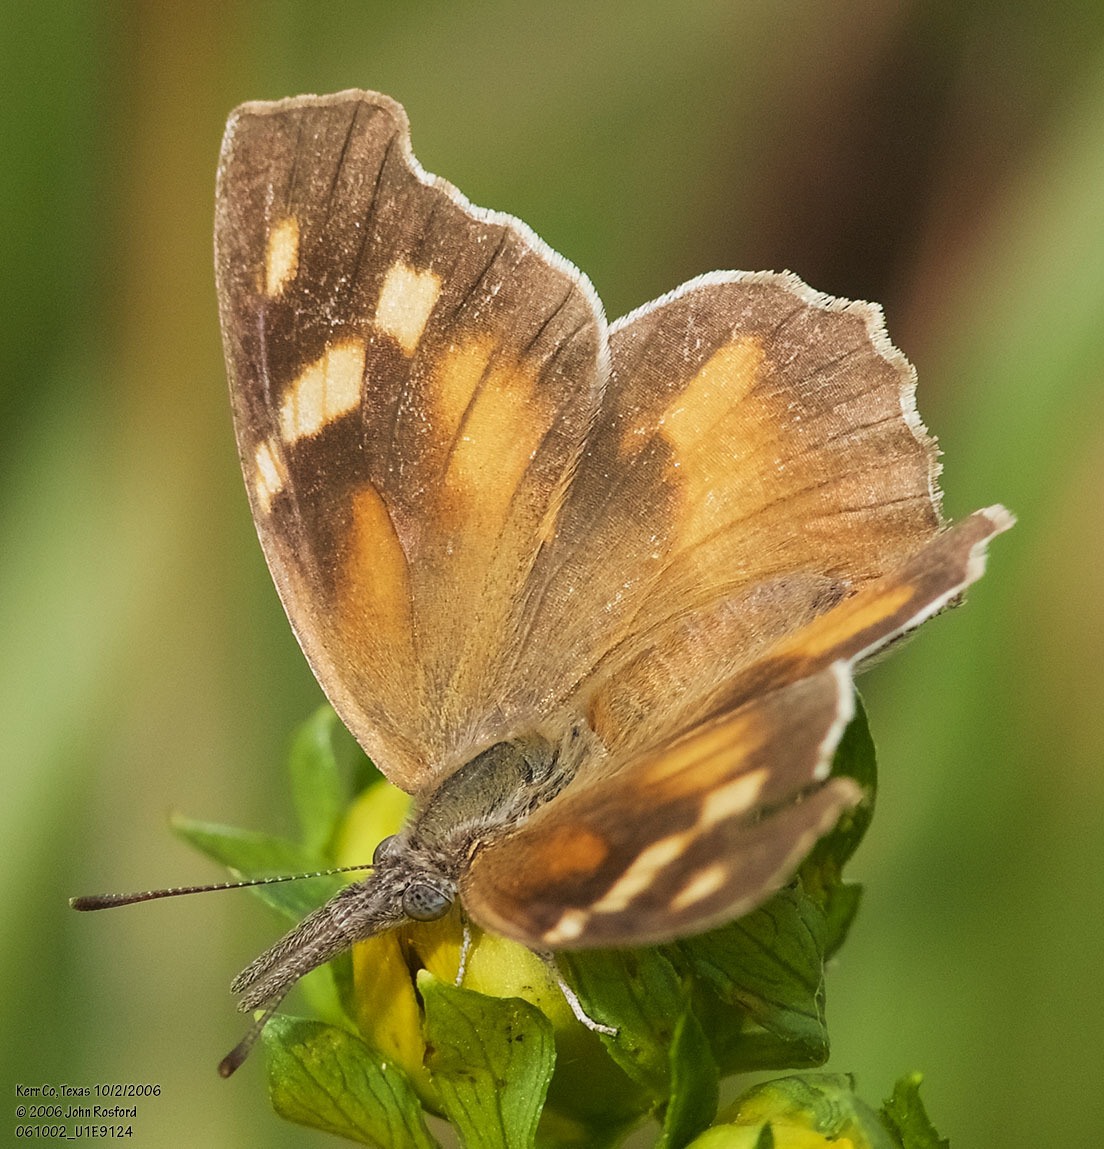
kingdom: Animalia
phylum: Arthropoda
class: Insecta
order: Lepidoptera
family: Nymphalidae
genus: Libytheana
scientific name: Libytheana carinenta
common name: American snout
